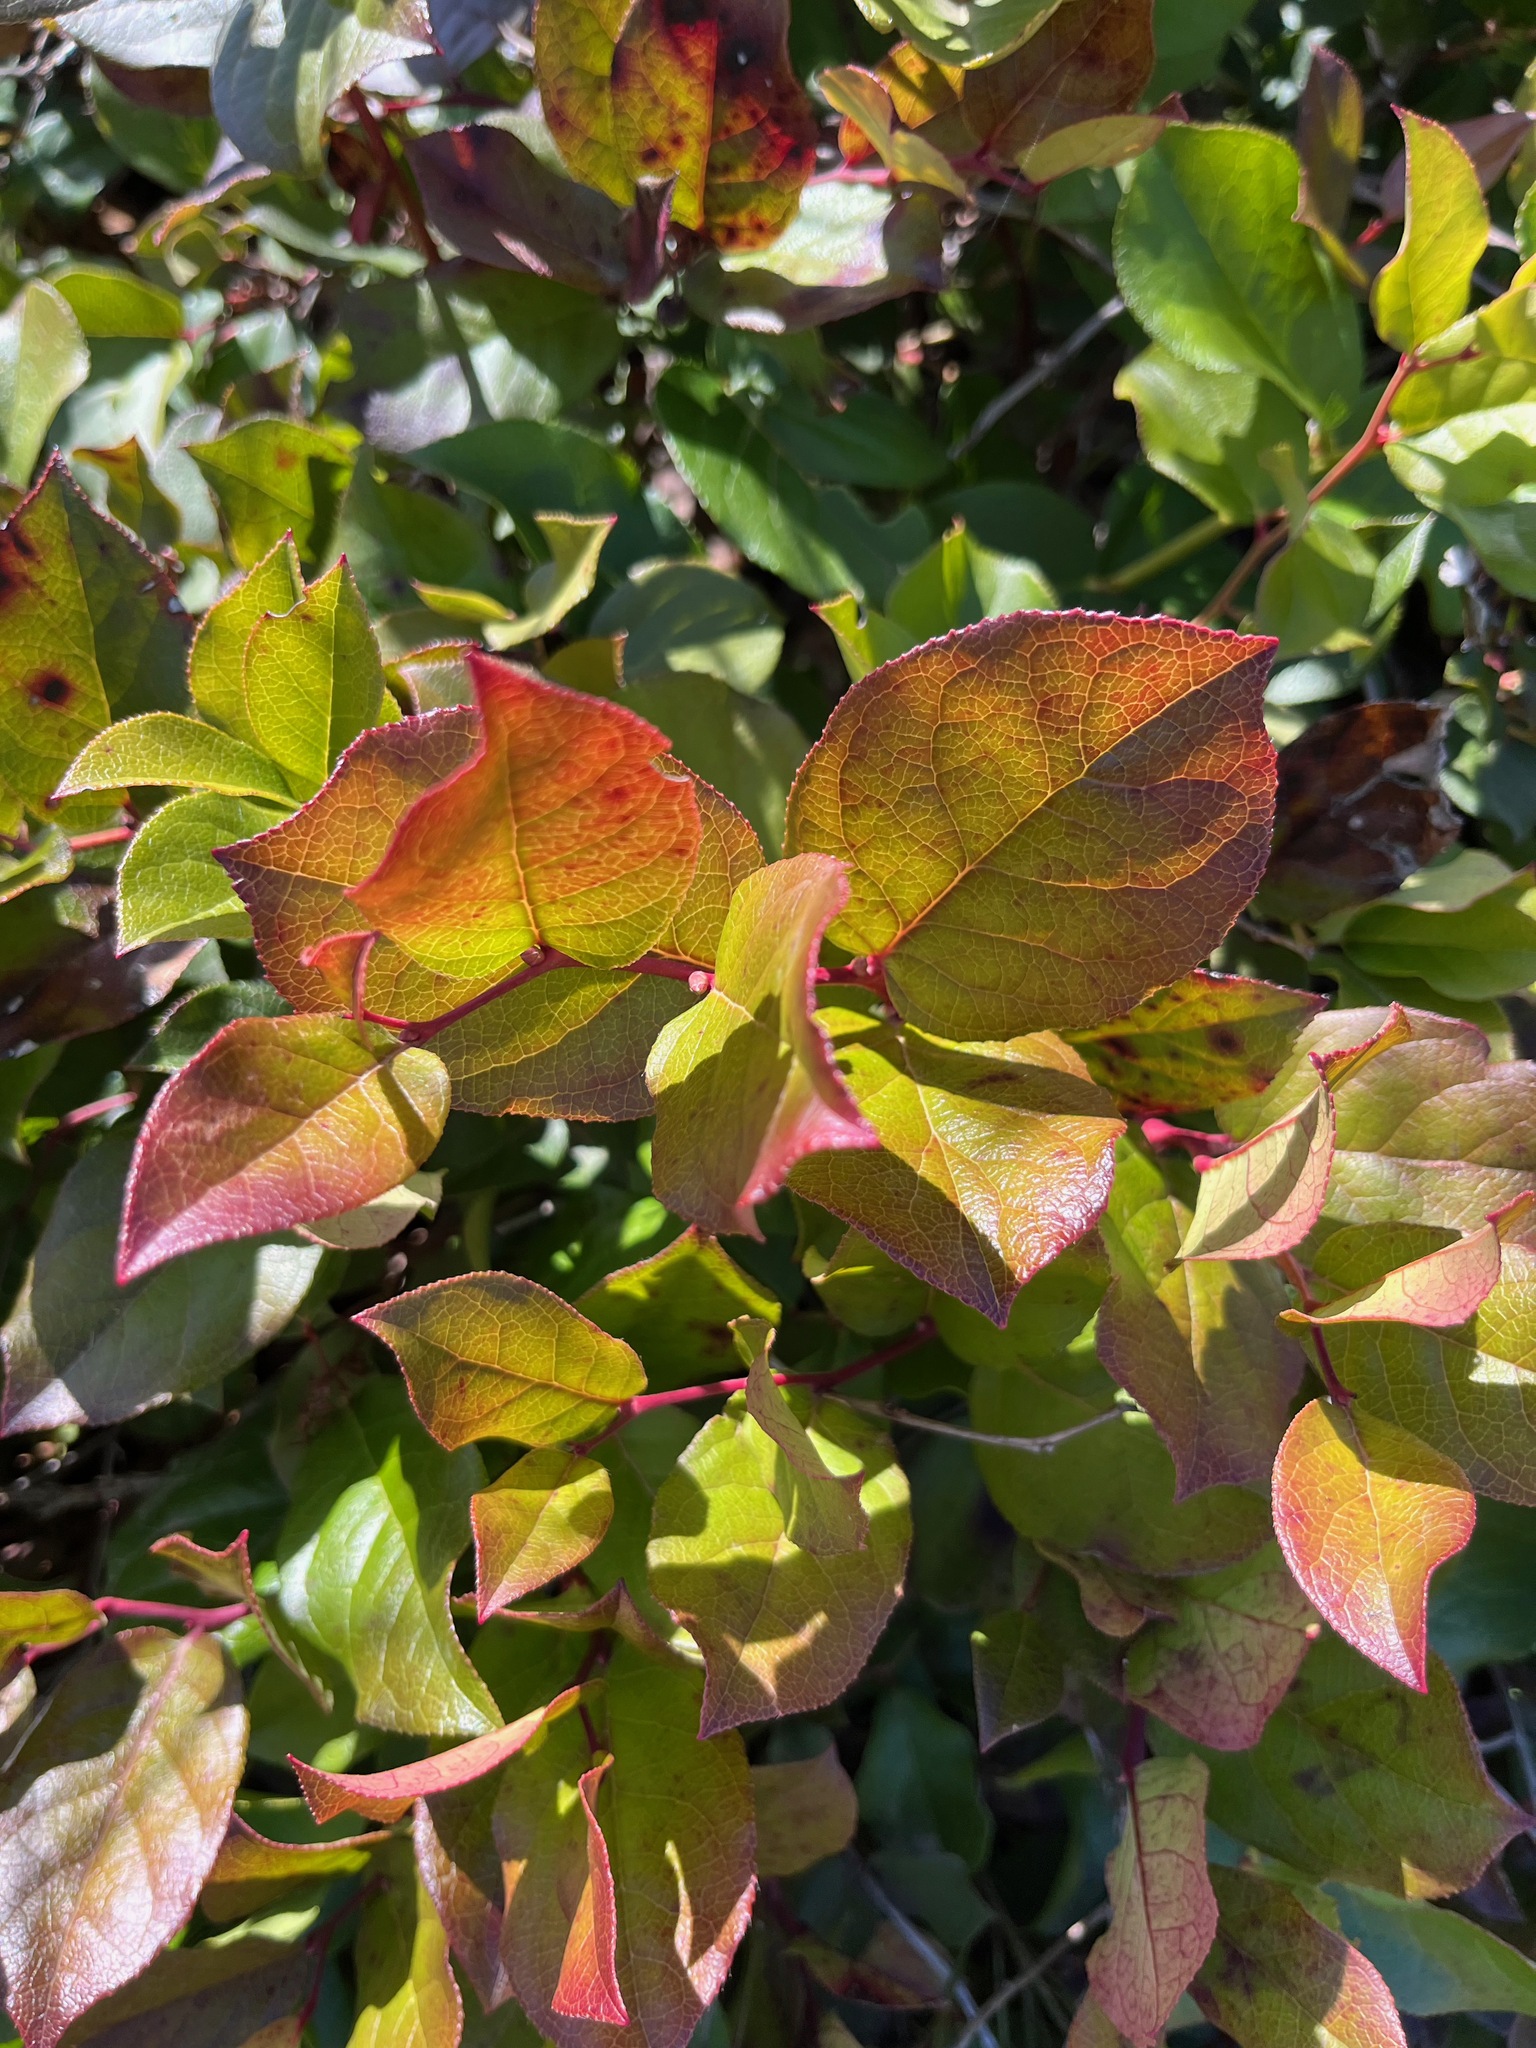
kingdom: Plantae
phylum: Tracheophyta
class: Magnoliopsida
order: Ericales
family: Ericaceae
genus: Gaultheria
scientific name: Gaultheria shallon
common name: Shallon
